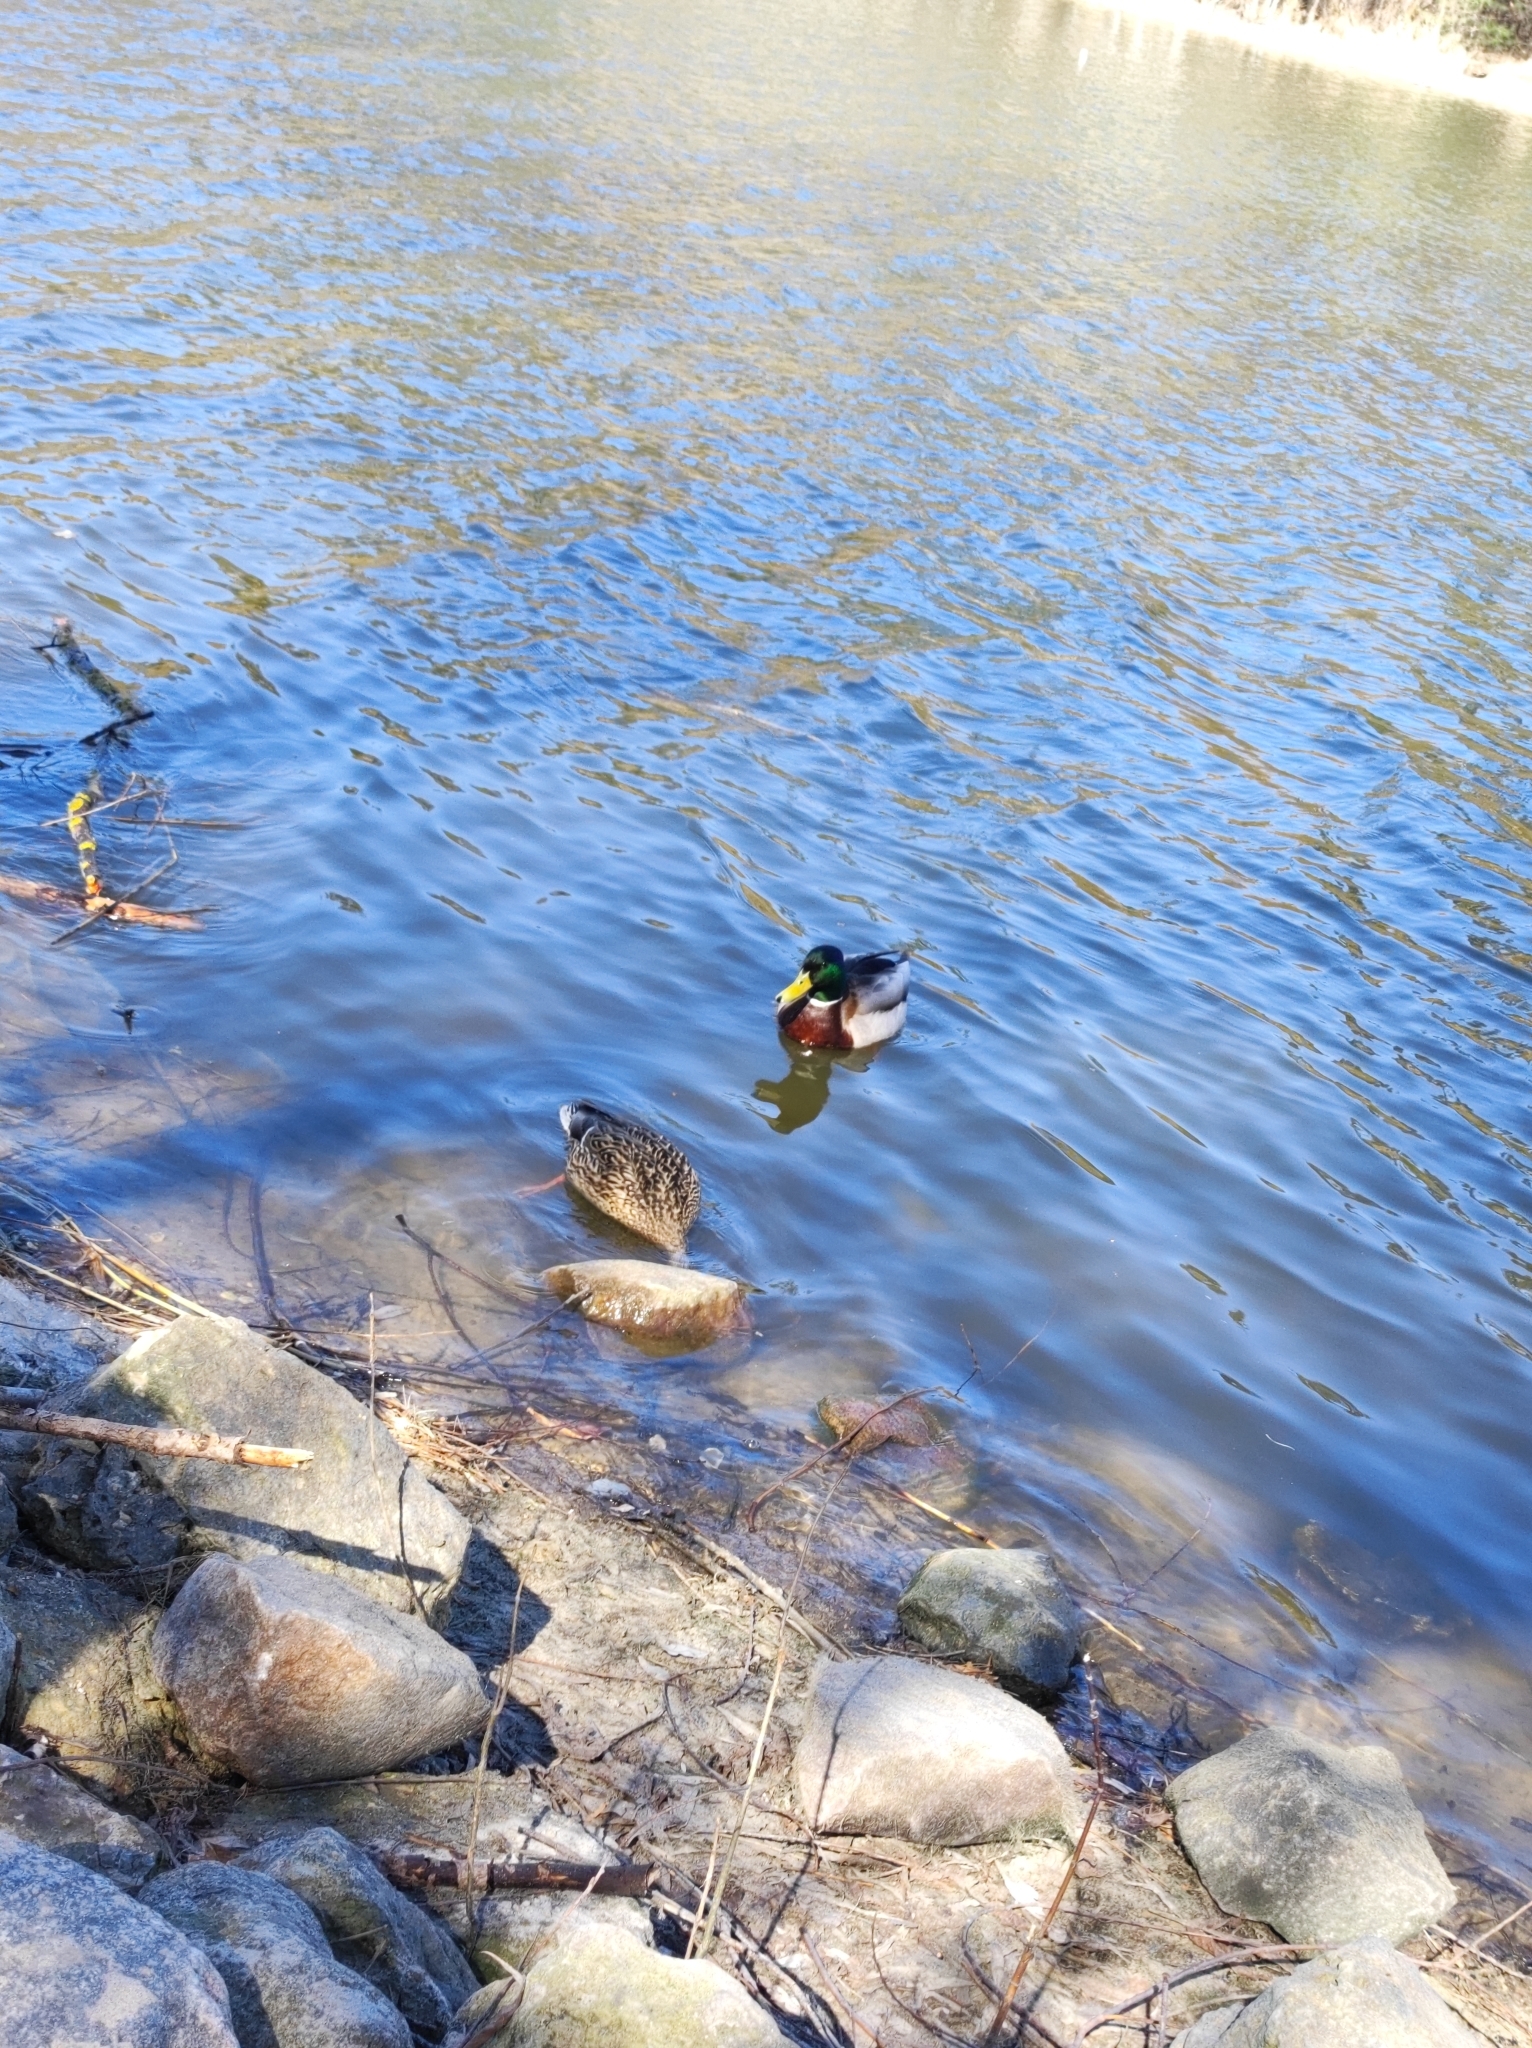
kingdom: Animalia
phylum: Chordata
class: Aves
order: Anseriformes
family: Anatidae
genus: Anas
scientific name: Anas platyrhynchos
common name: Mallard
